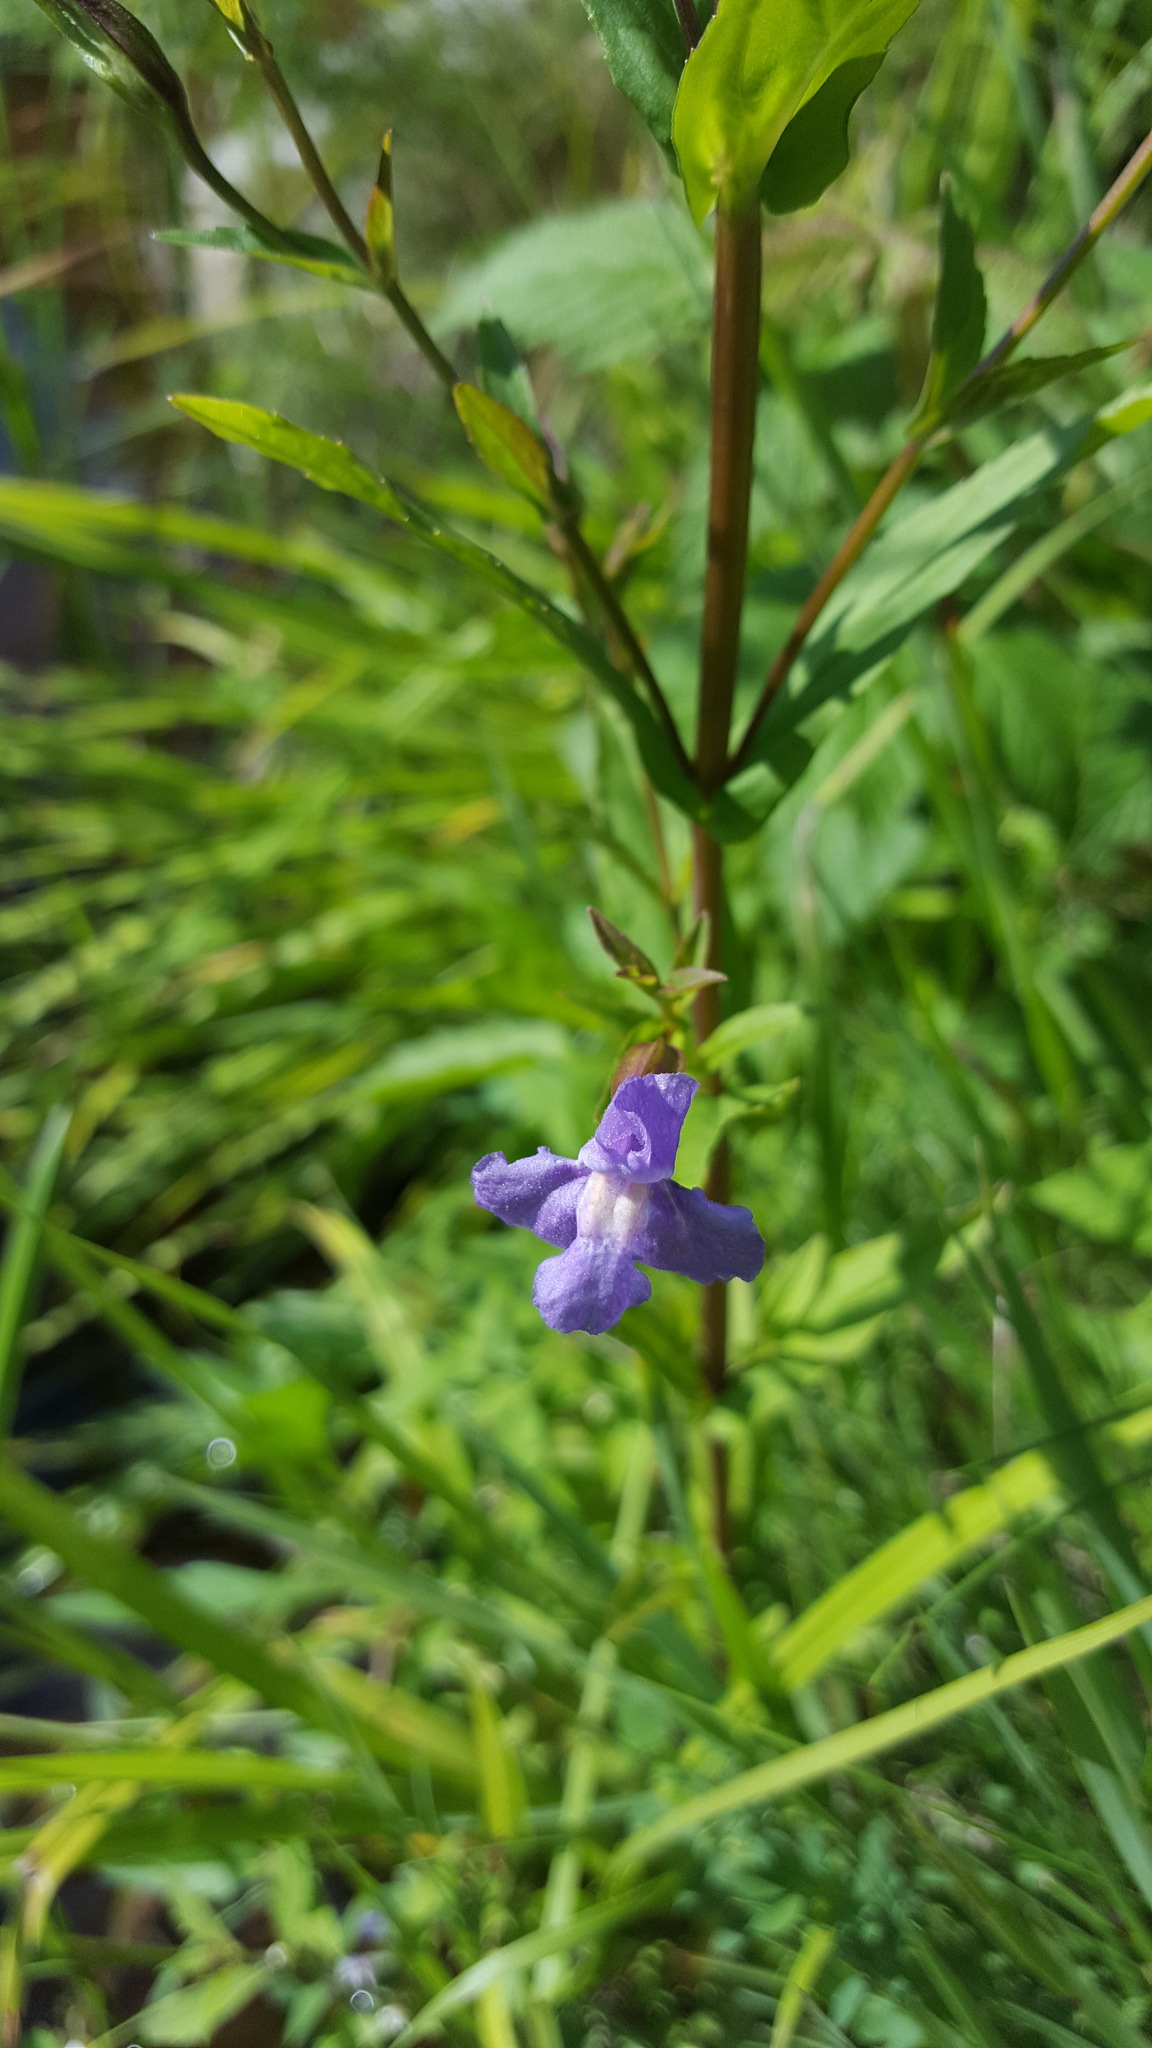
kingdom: Plantae
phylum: Tracheophyta
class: Magnoliopsida
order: Lamiales
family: Phrymaceae
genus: Mimulus
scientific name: Mimulus ringens
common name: Allegheny monkeyflower
